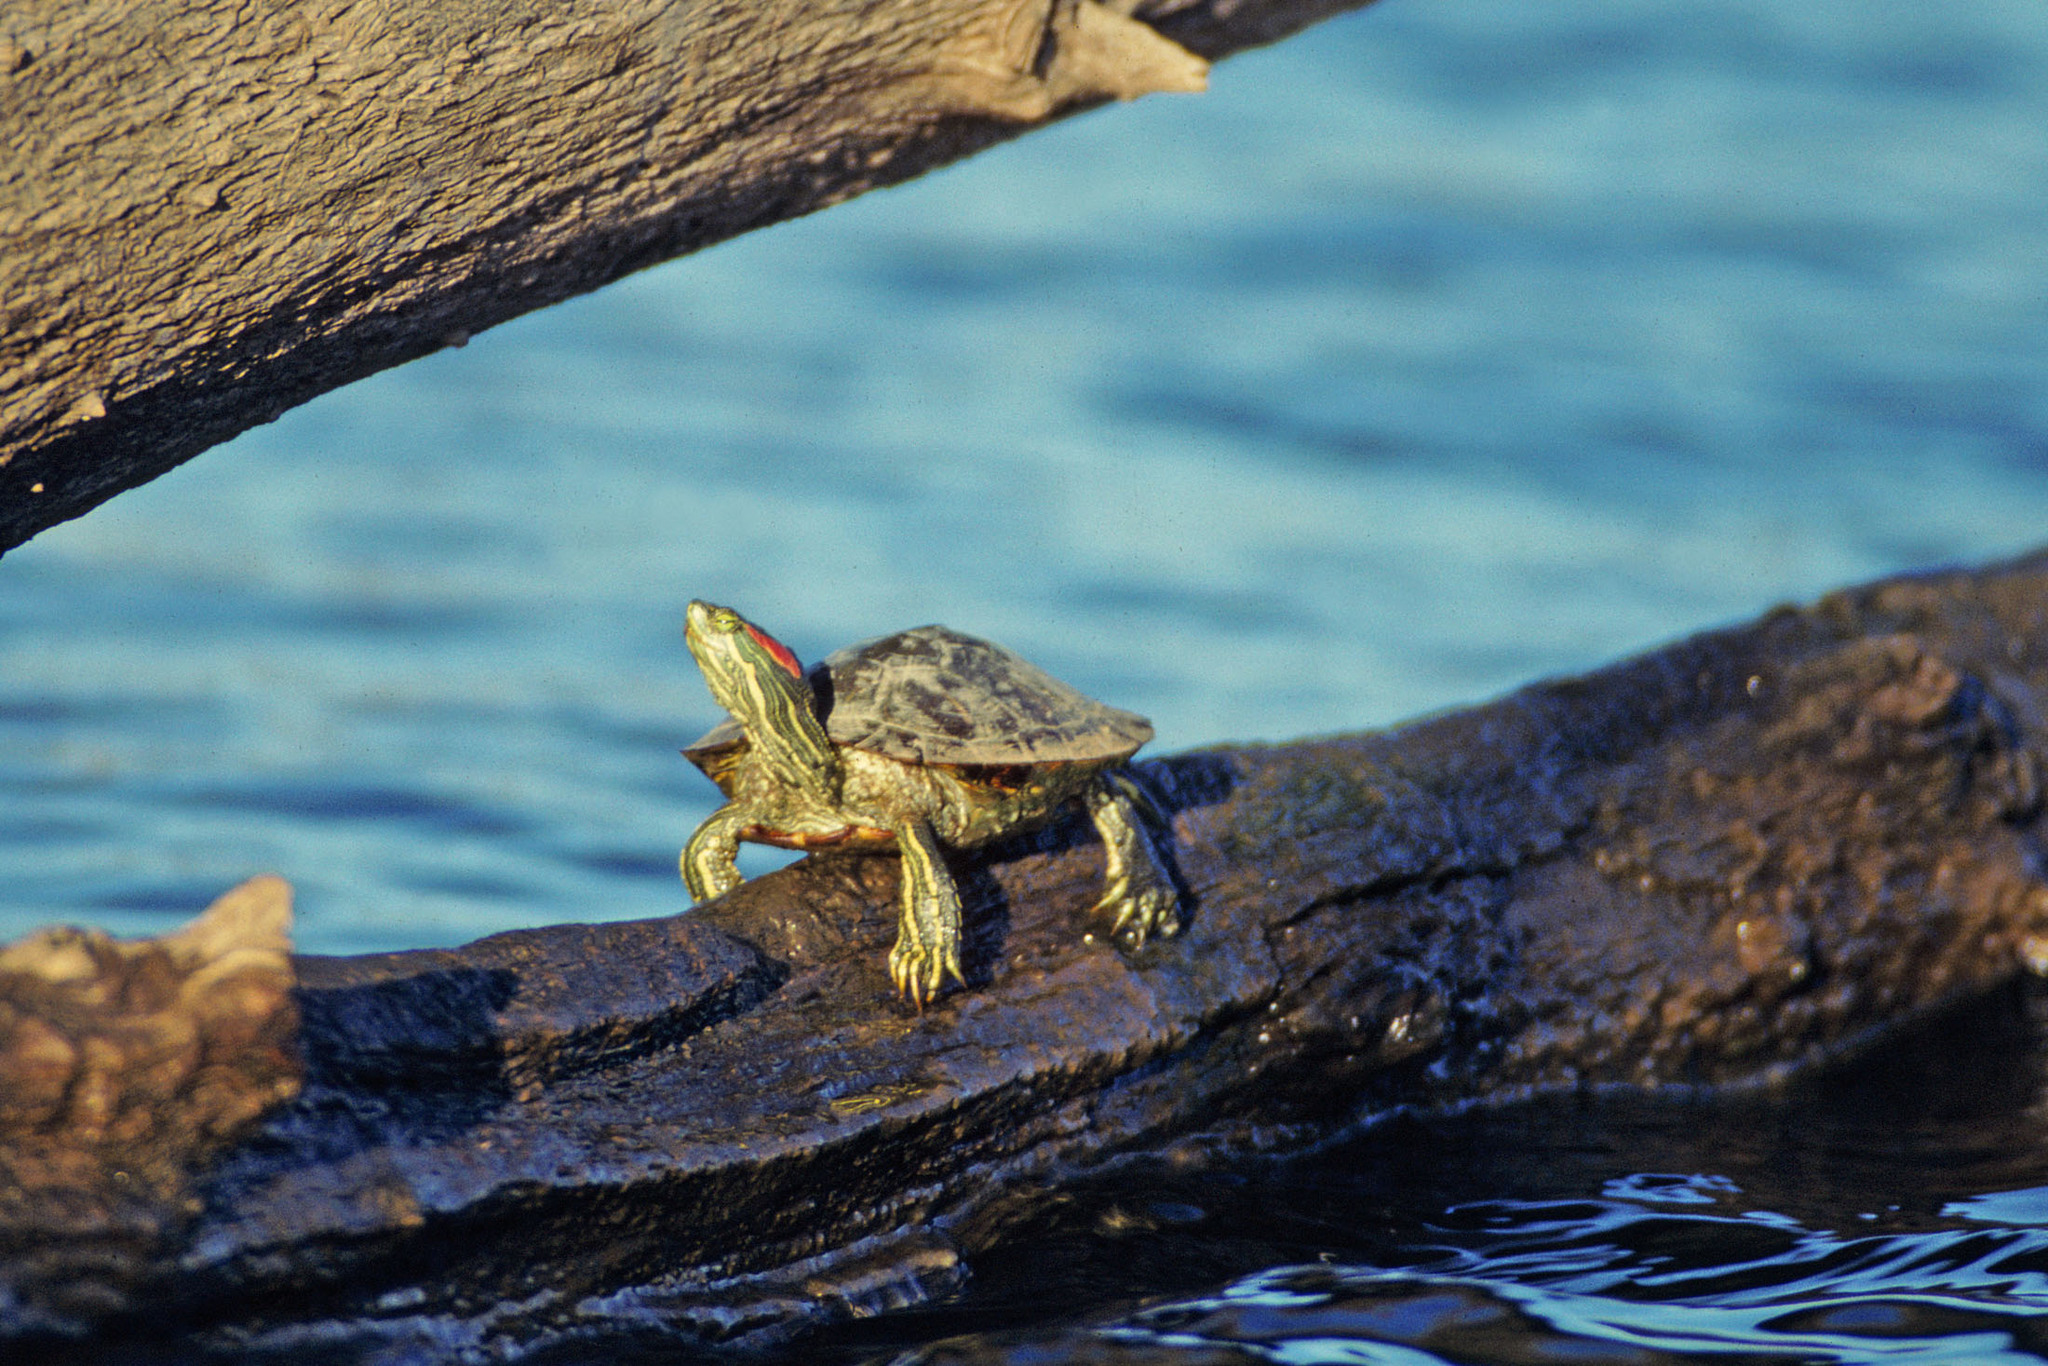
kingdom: Animalia
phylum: Chordata
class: Testudines
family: Emydidae
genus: Trachemys
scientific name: Trachemys scripta
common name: Slider
